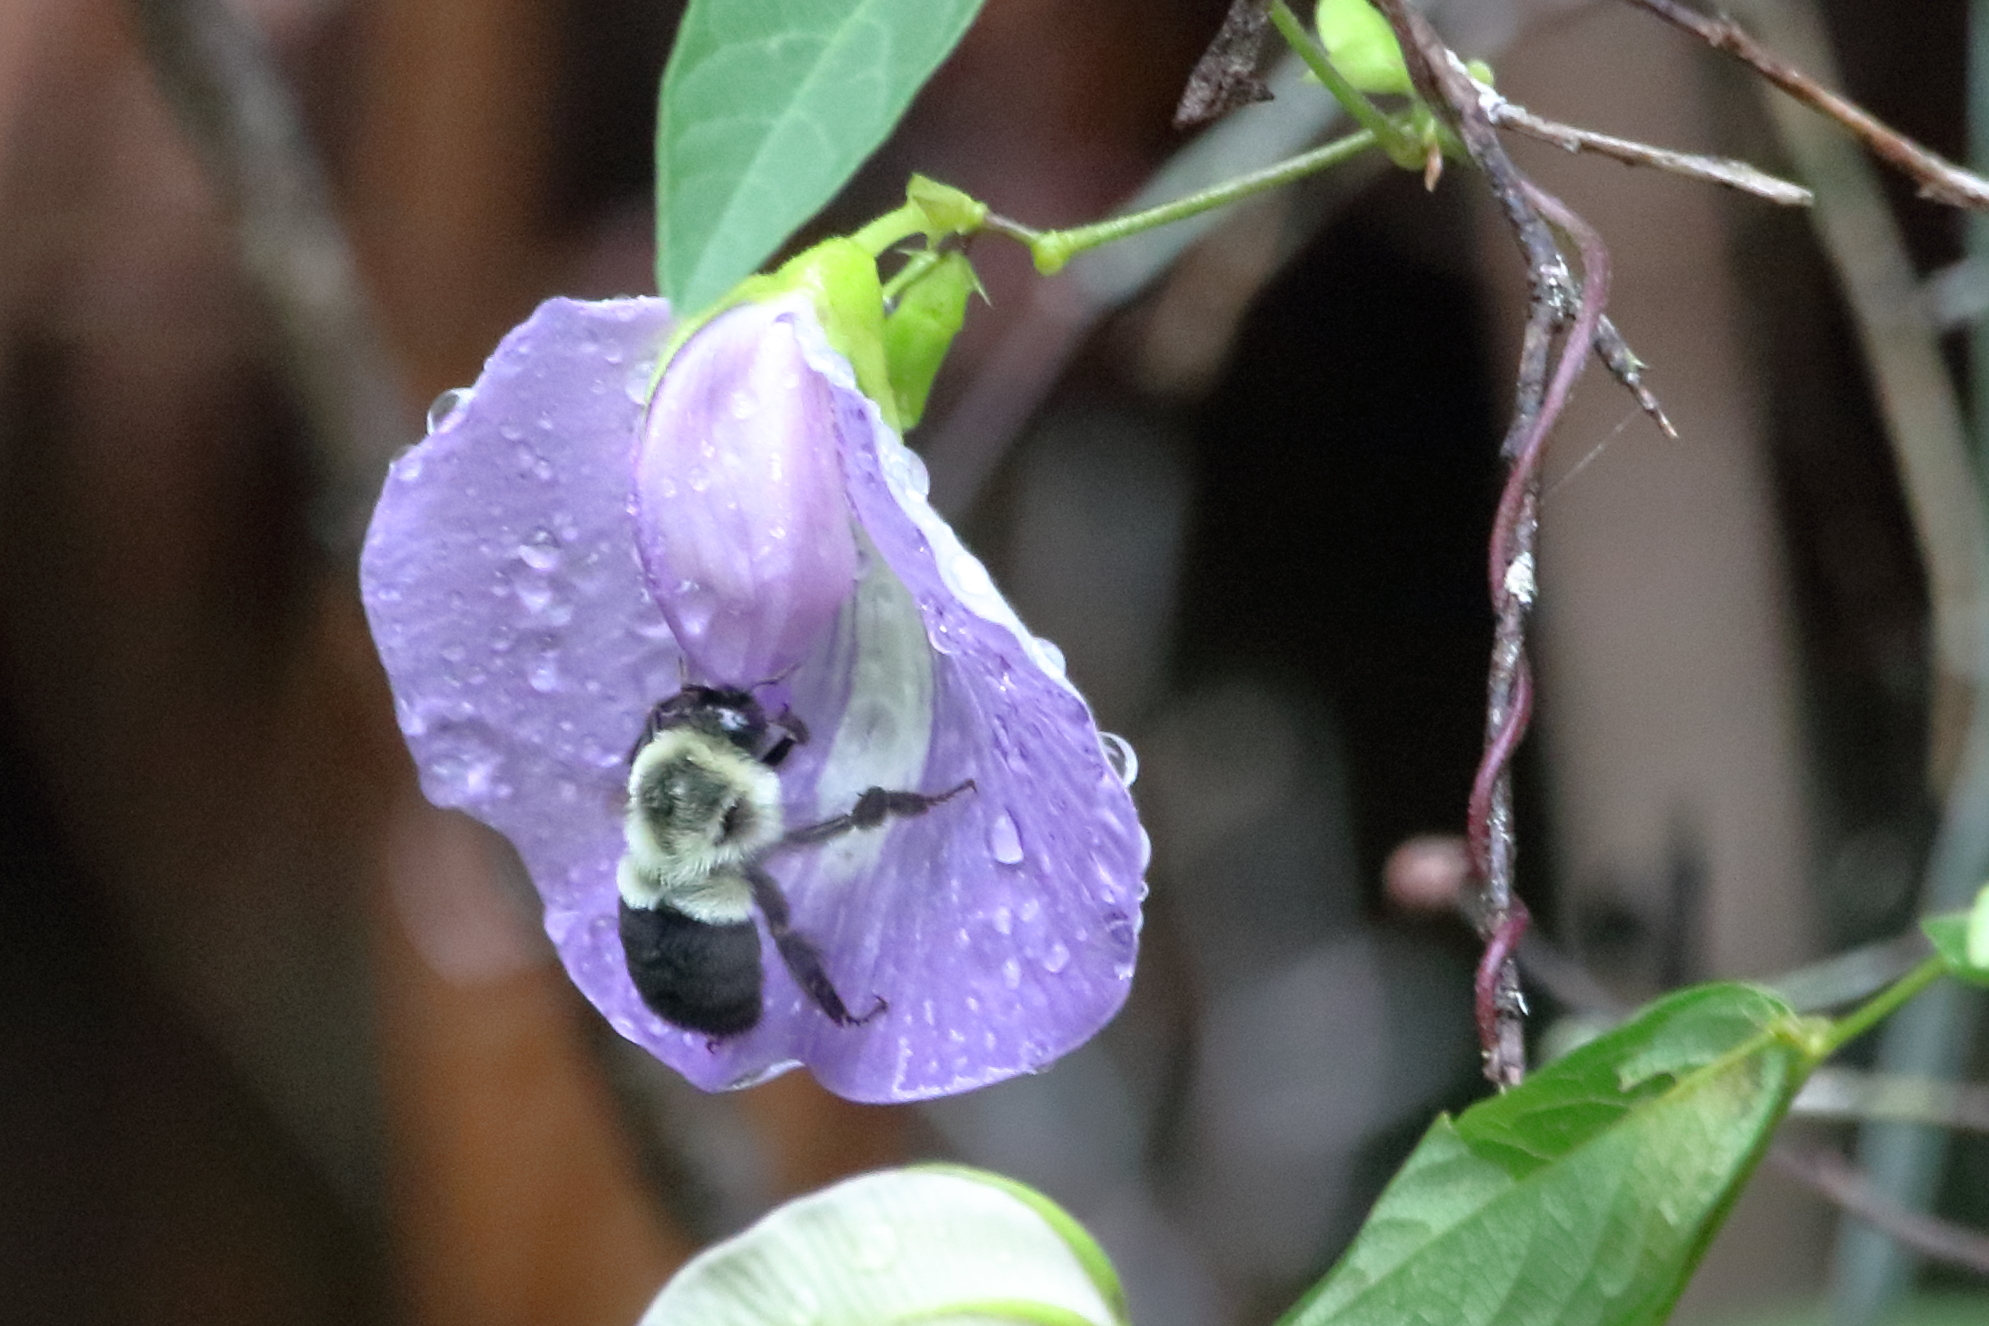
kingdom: Animalia
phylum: Arthropoda
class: Insecta
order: Hymenoptera
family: Apidae
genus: Bombus
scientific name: Bombus impatiens
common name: Common eastern bumble bee
